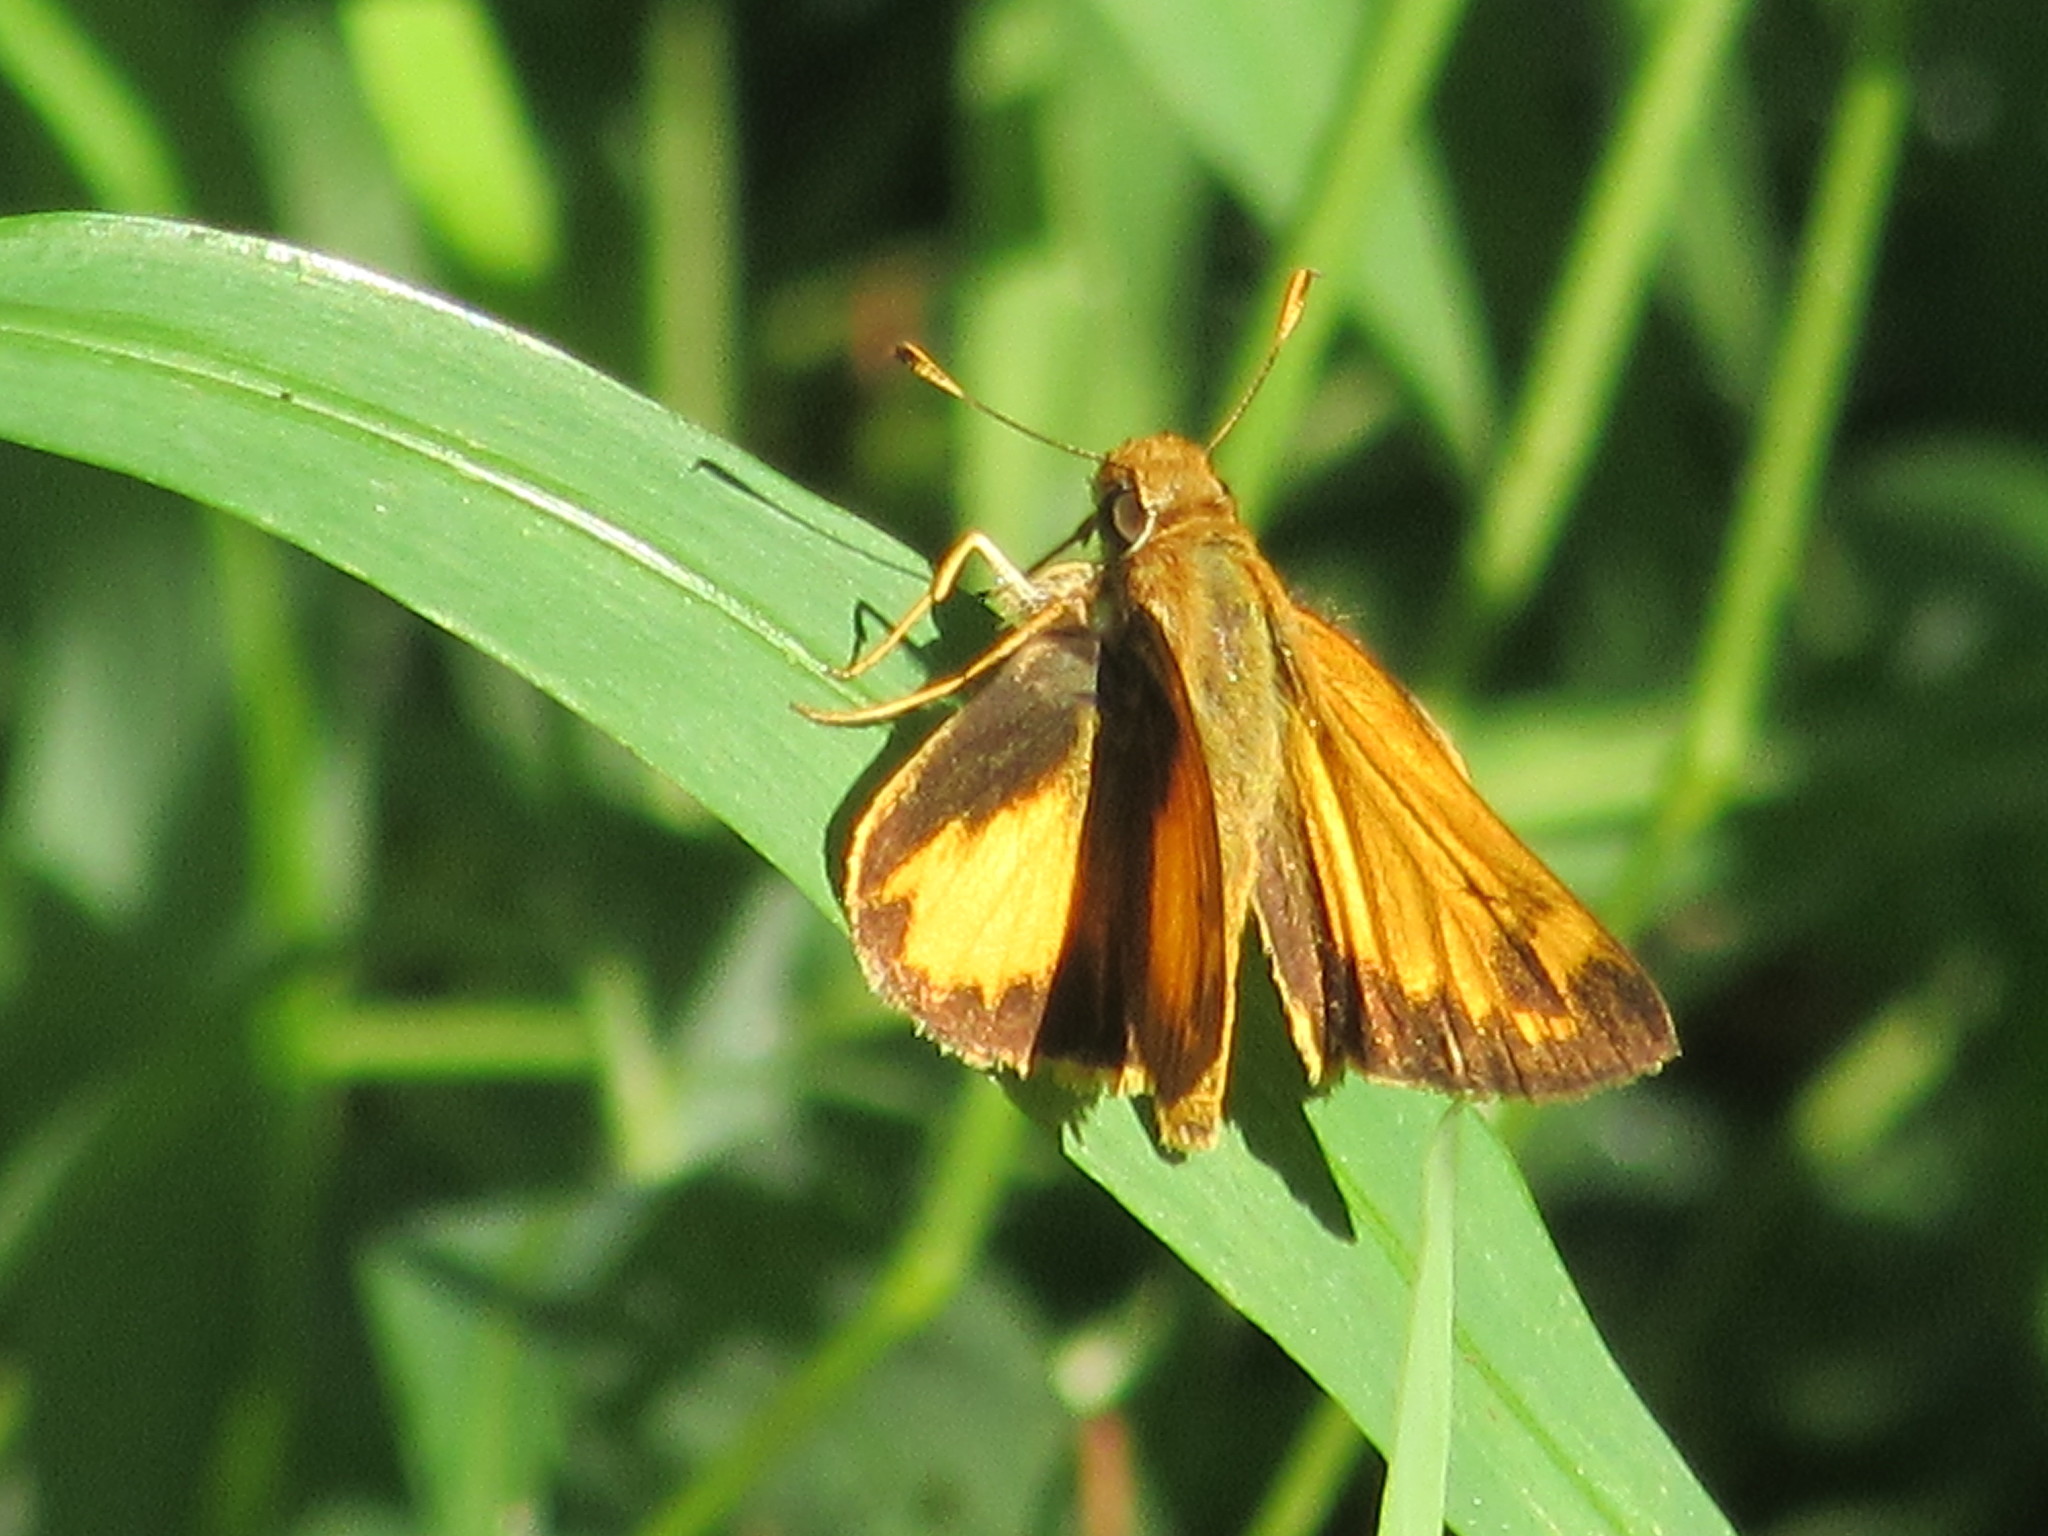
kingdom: Animalia
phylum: Arthropoda
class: Insecta
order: Lepidoptera
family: Hesperiidae
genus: Lon
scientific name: Lon zabulon
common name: Zabulon skipper
